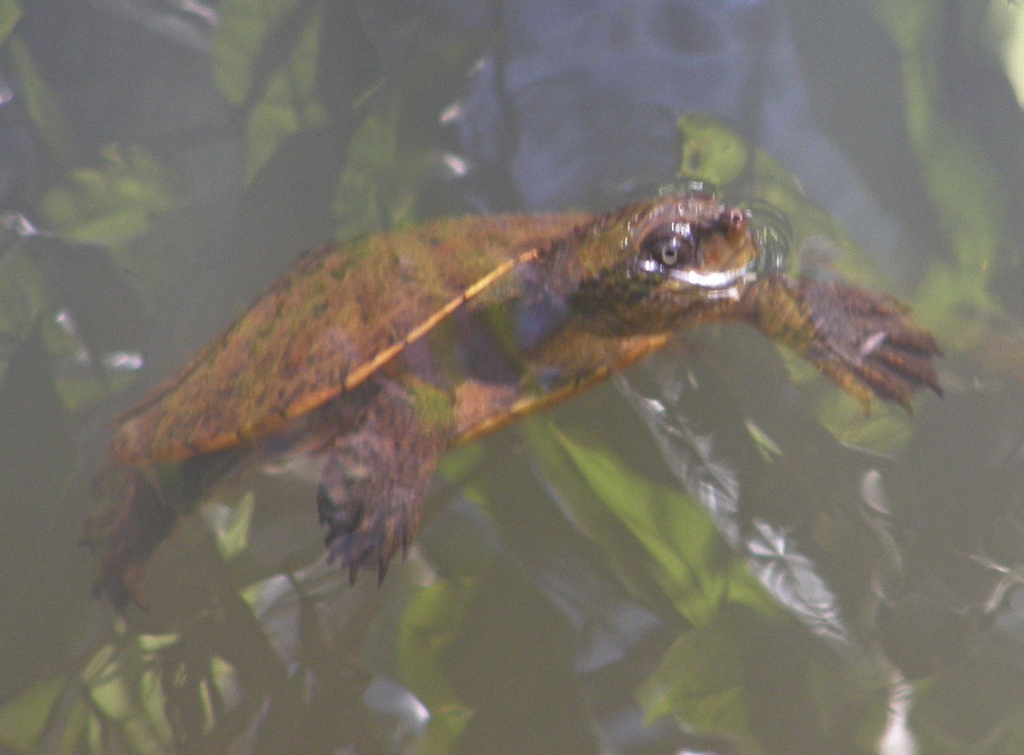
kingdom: Animalia
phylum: Chordata
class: Testudines
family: Chelidae
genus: Myuchelys
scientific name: Myuchelys latisternum
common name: Serrated snapping turtle
